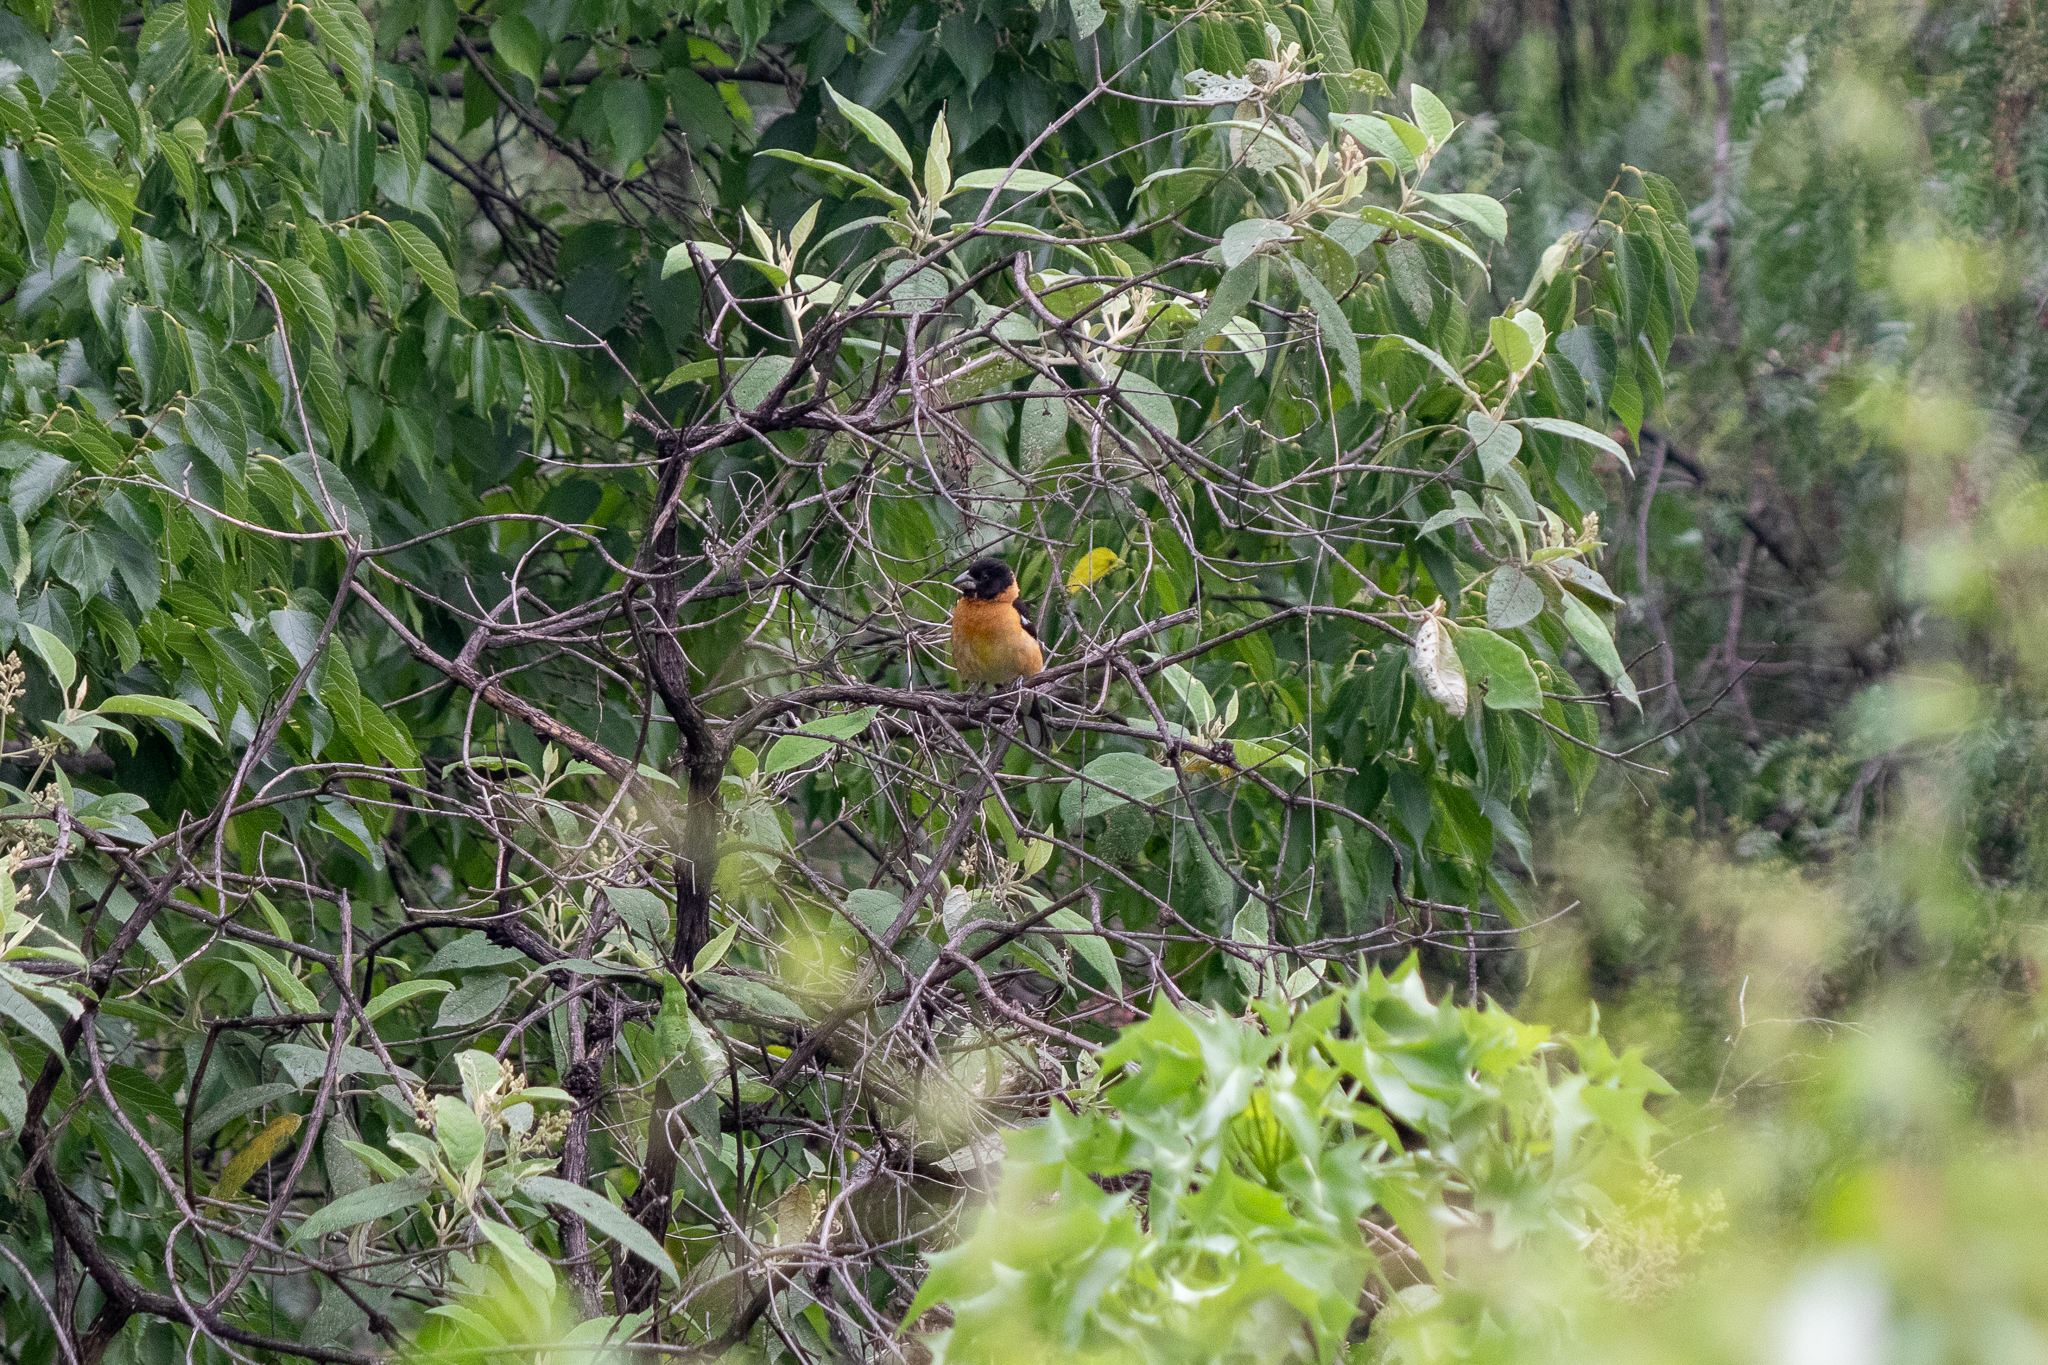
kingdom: Animalia
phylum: Chordata
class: Aves
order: Passeriformes
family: Cardinalidae
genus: Pheucticus
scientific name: Pheucticus melanocephalus
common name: Black-headed grosbeak
